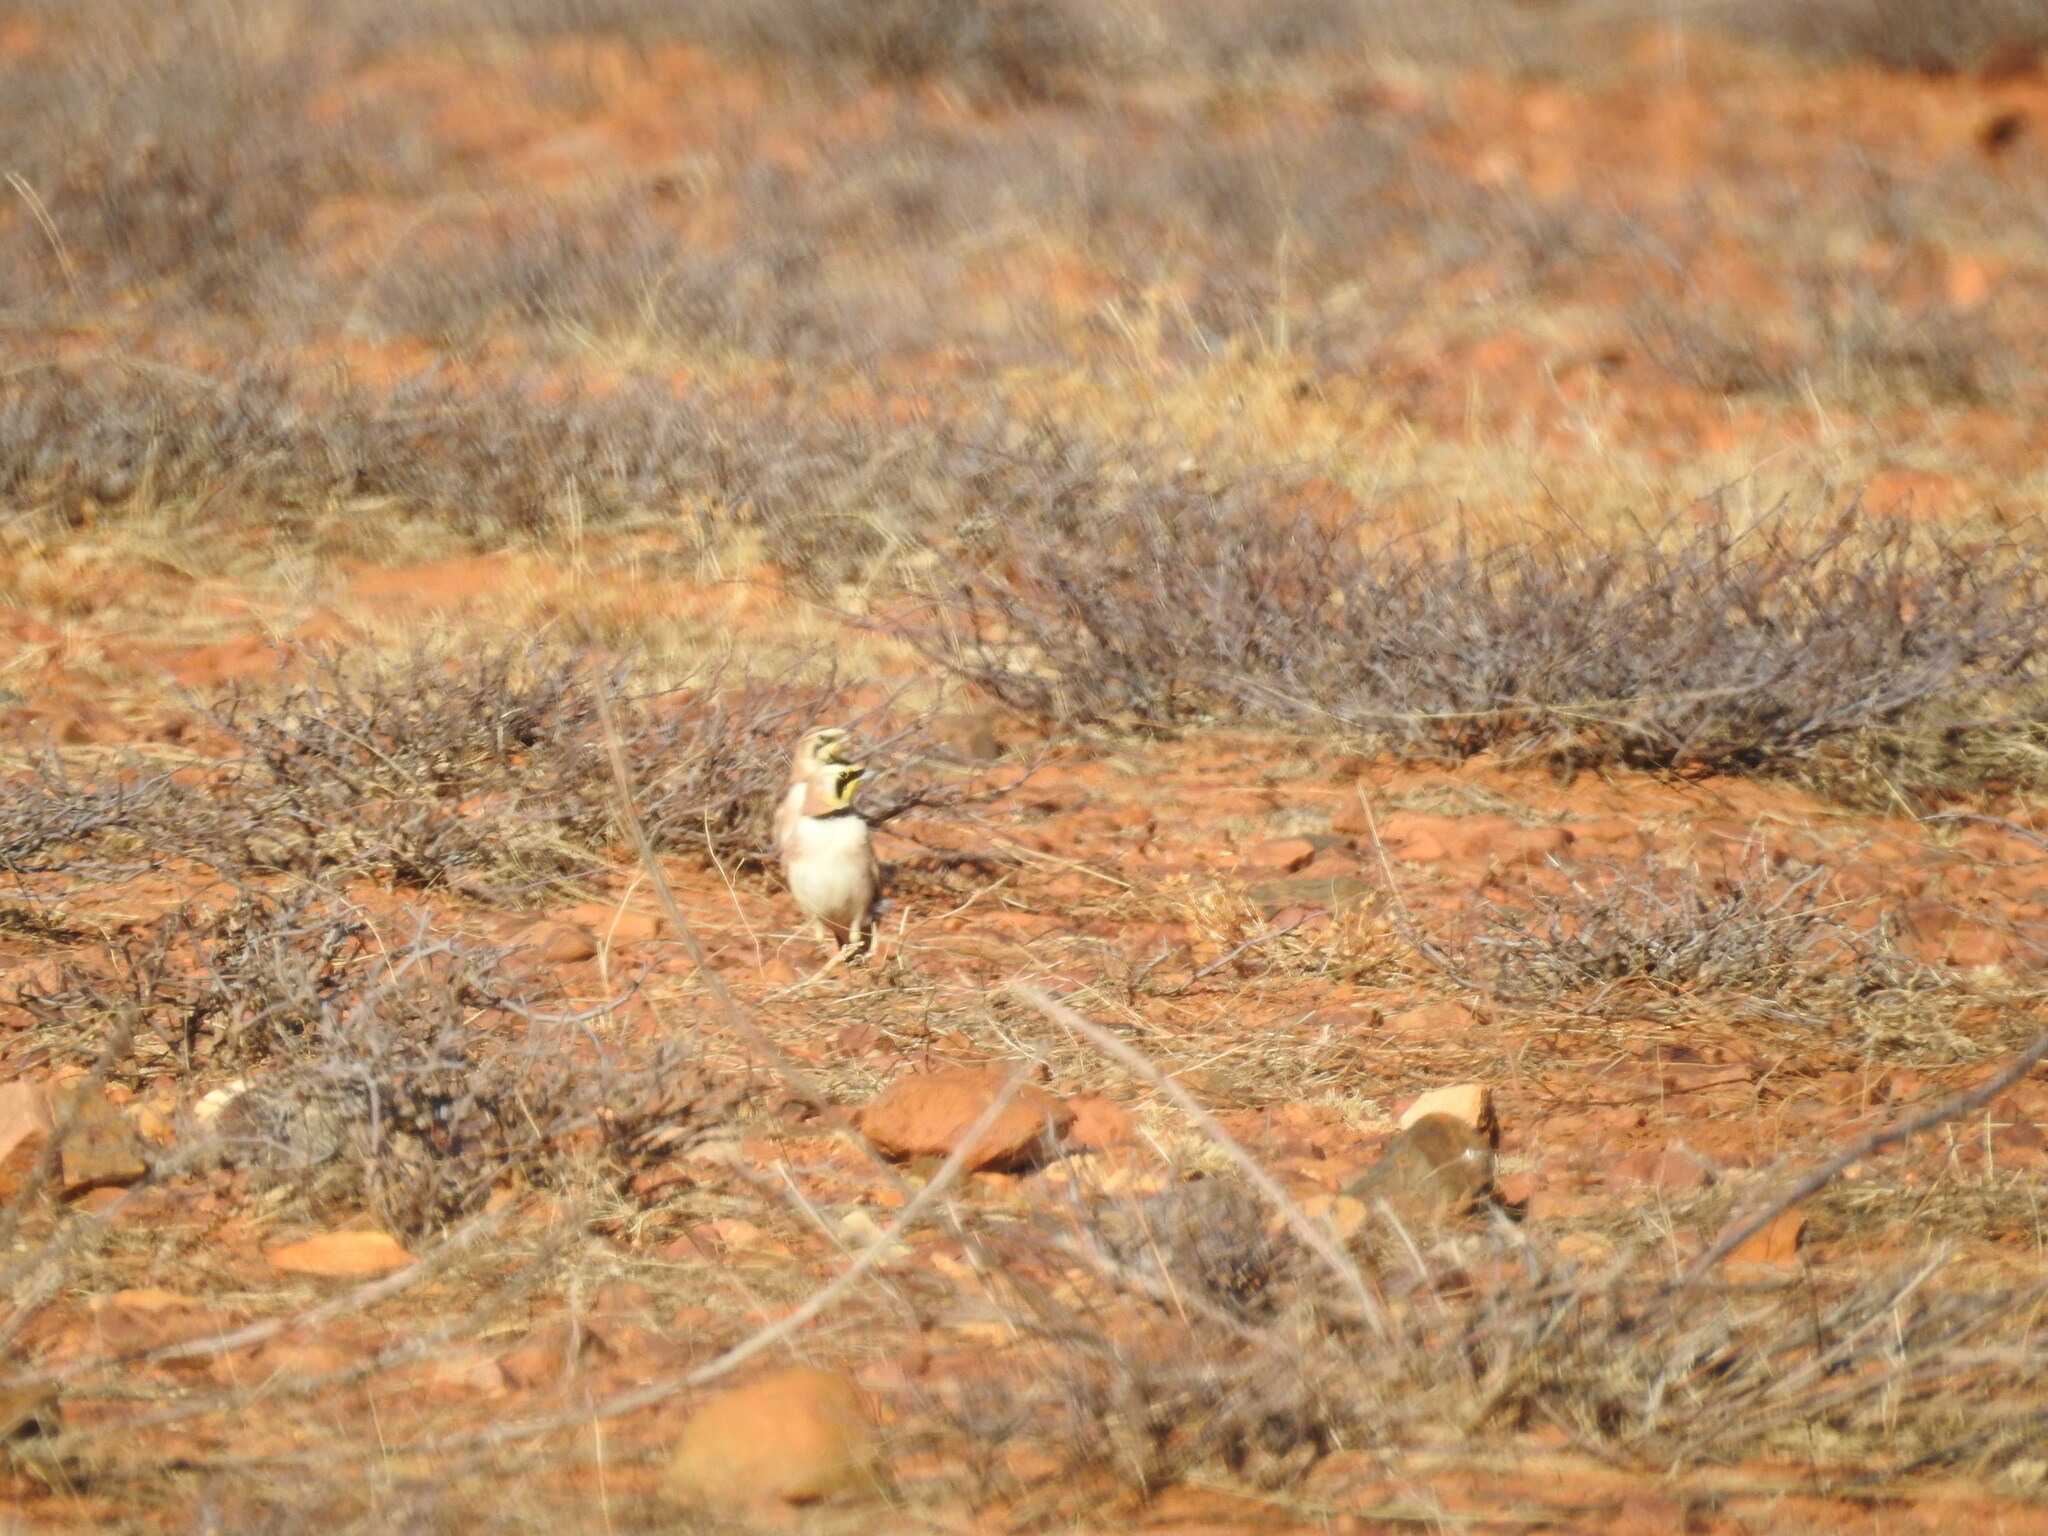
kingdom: Animalia
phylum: Chordata
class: Aves
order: Passeriformes
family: Alaudidae
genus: Eremophila
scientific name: Eremophila alpestris
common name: Horned lark
